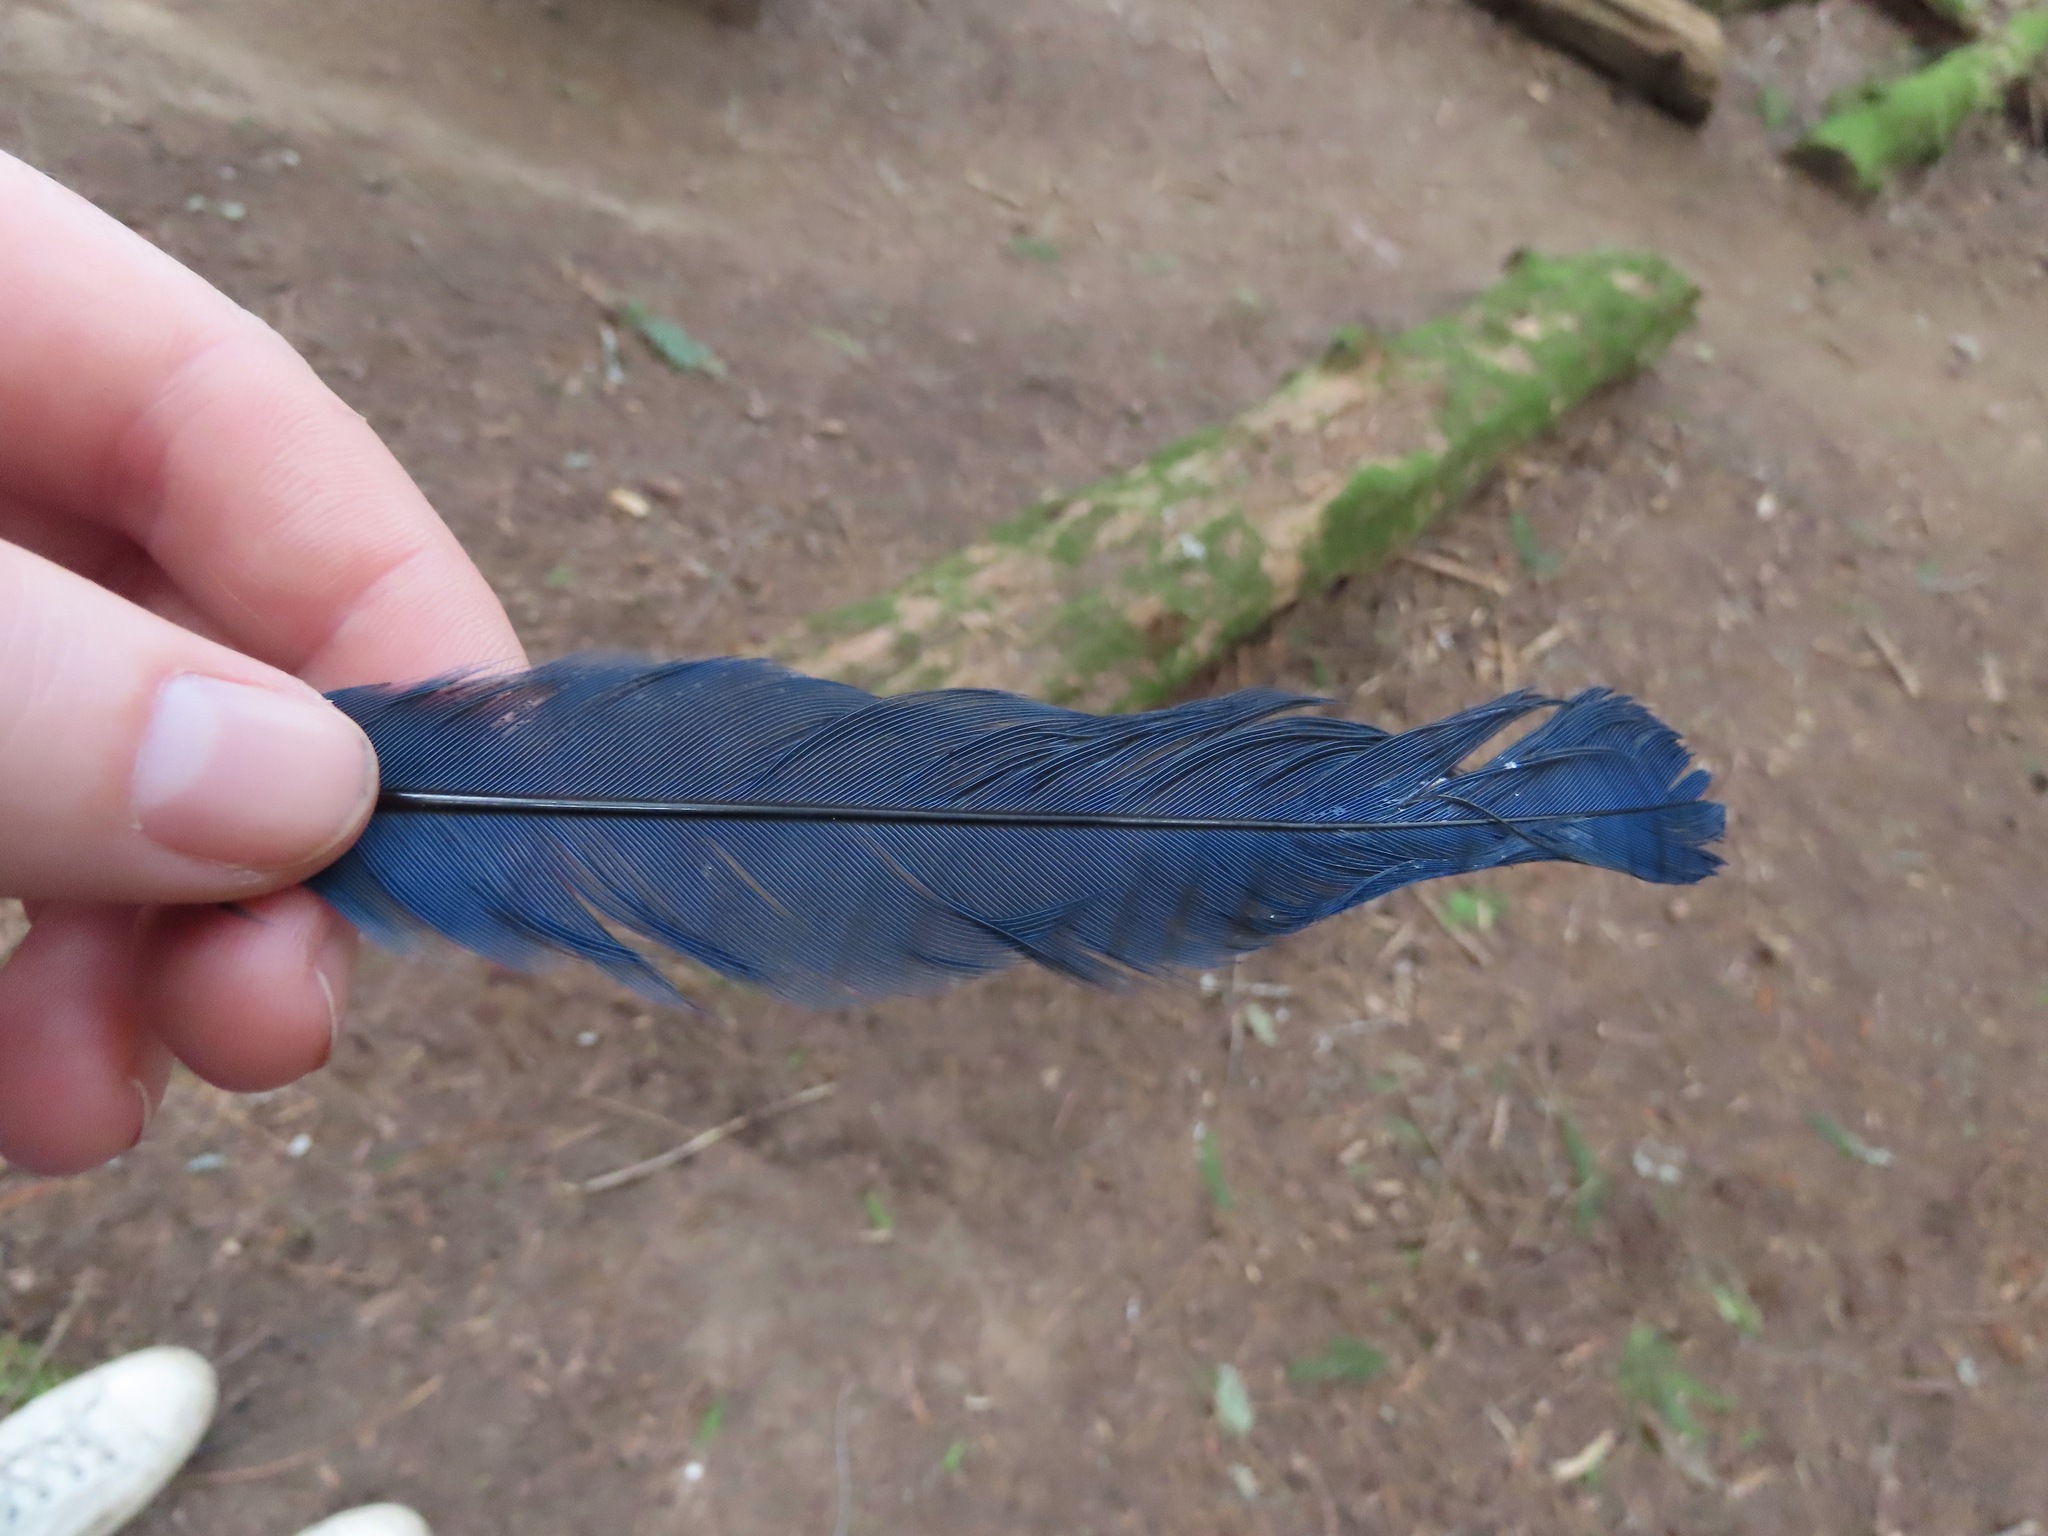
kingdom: Animalia
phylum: Chordata
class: Aves
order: Passeriformes
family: Corvidae
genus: Cyanocitta
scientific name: Cyanocitta stelleri
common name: Steller's jay
